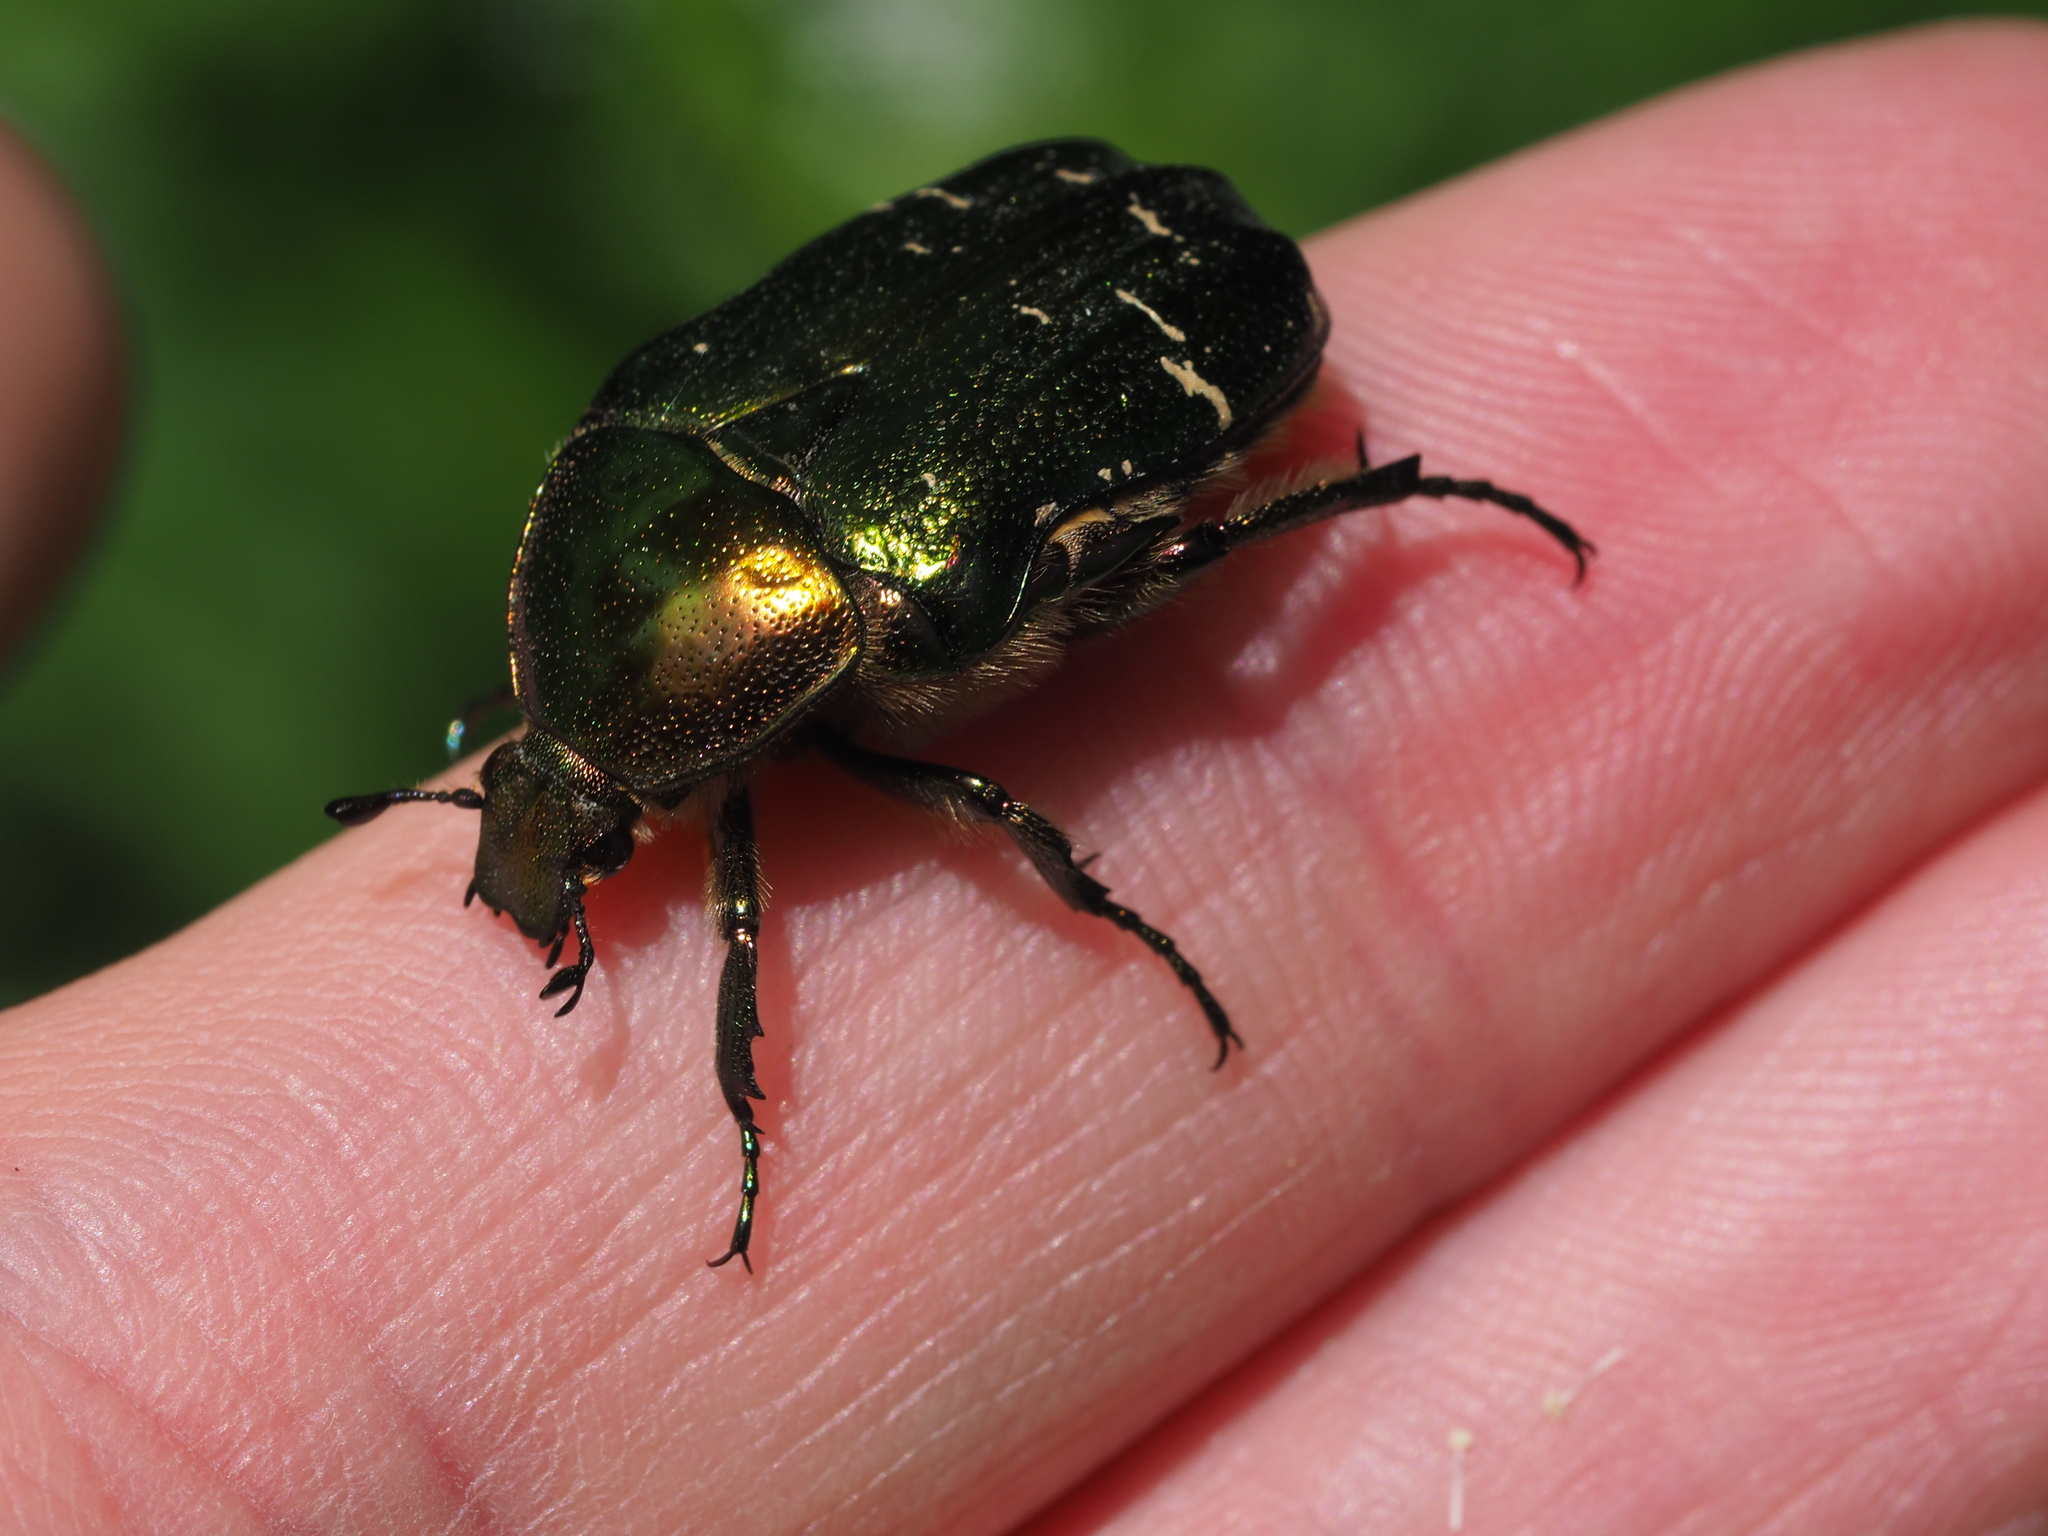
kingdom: Animalia
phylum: Arthropoda
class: Insecta
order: Coleoptera
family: Scarabaeidae
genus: Cetonia
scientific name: Cetonia aurata
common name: Rose chafer
